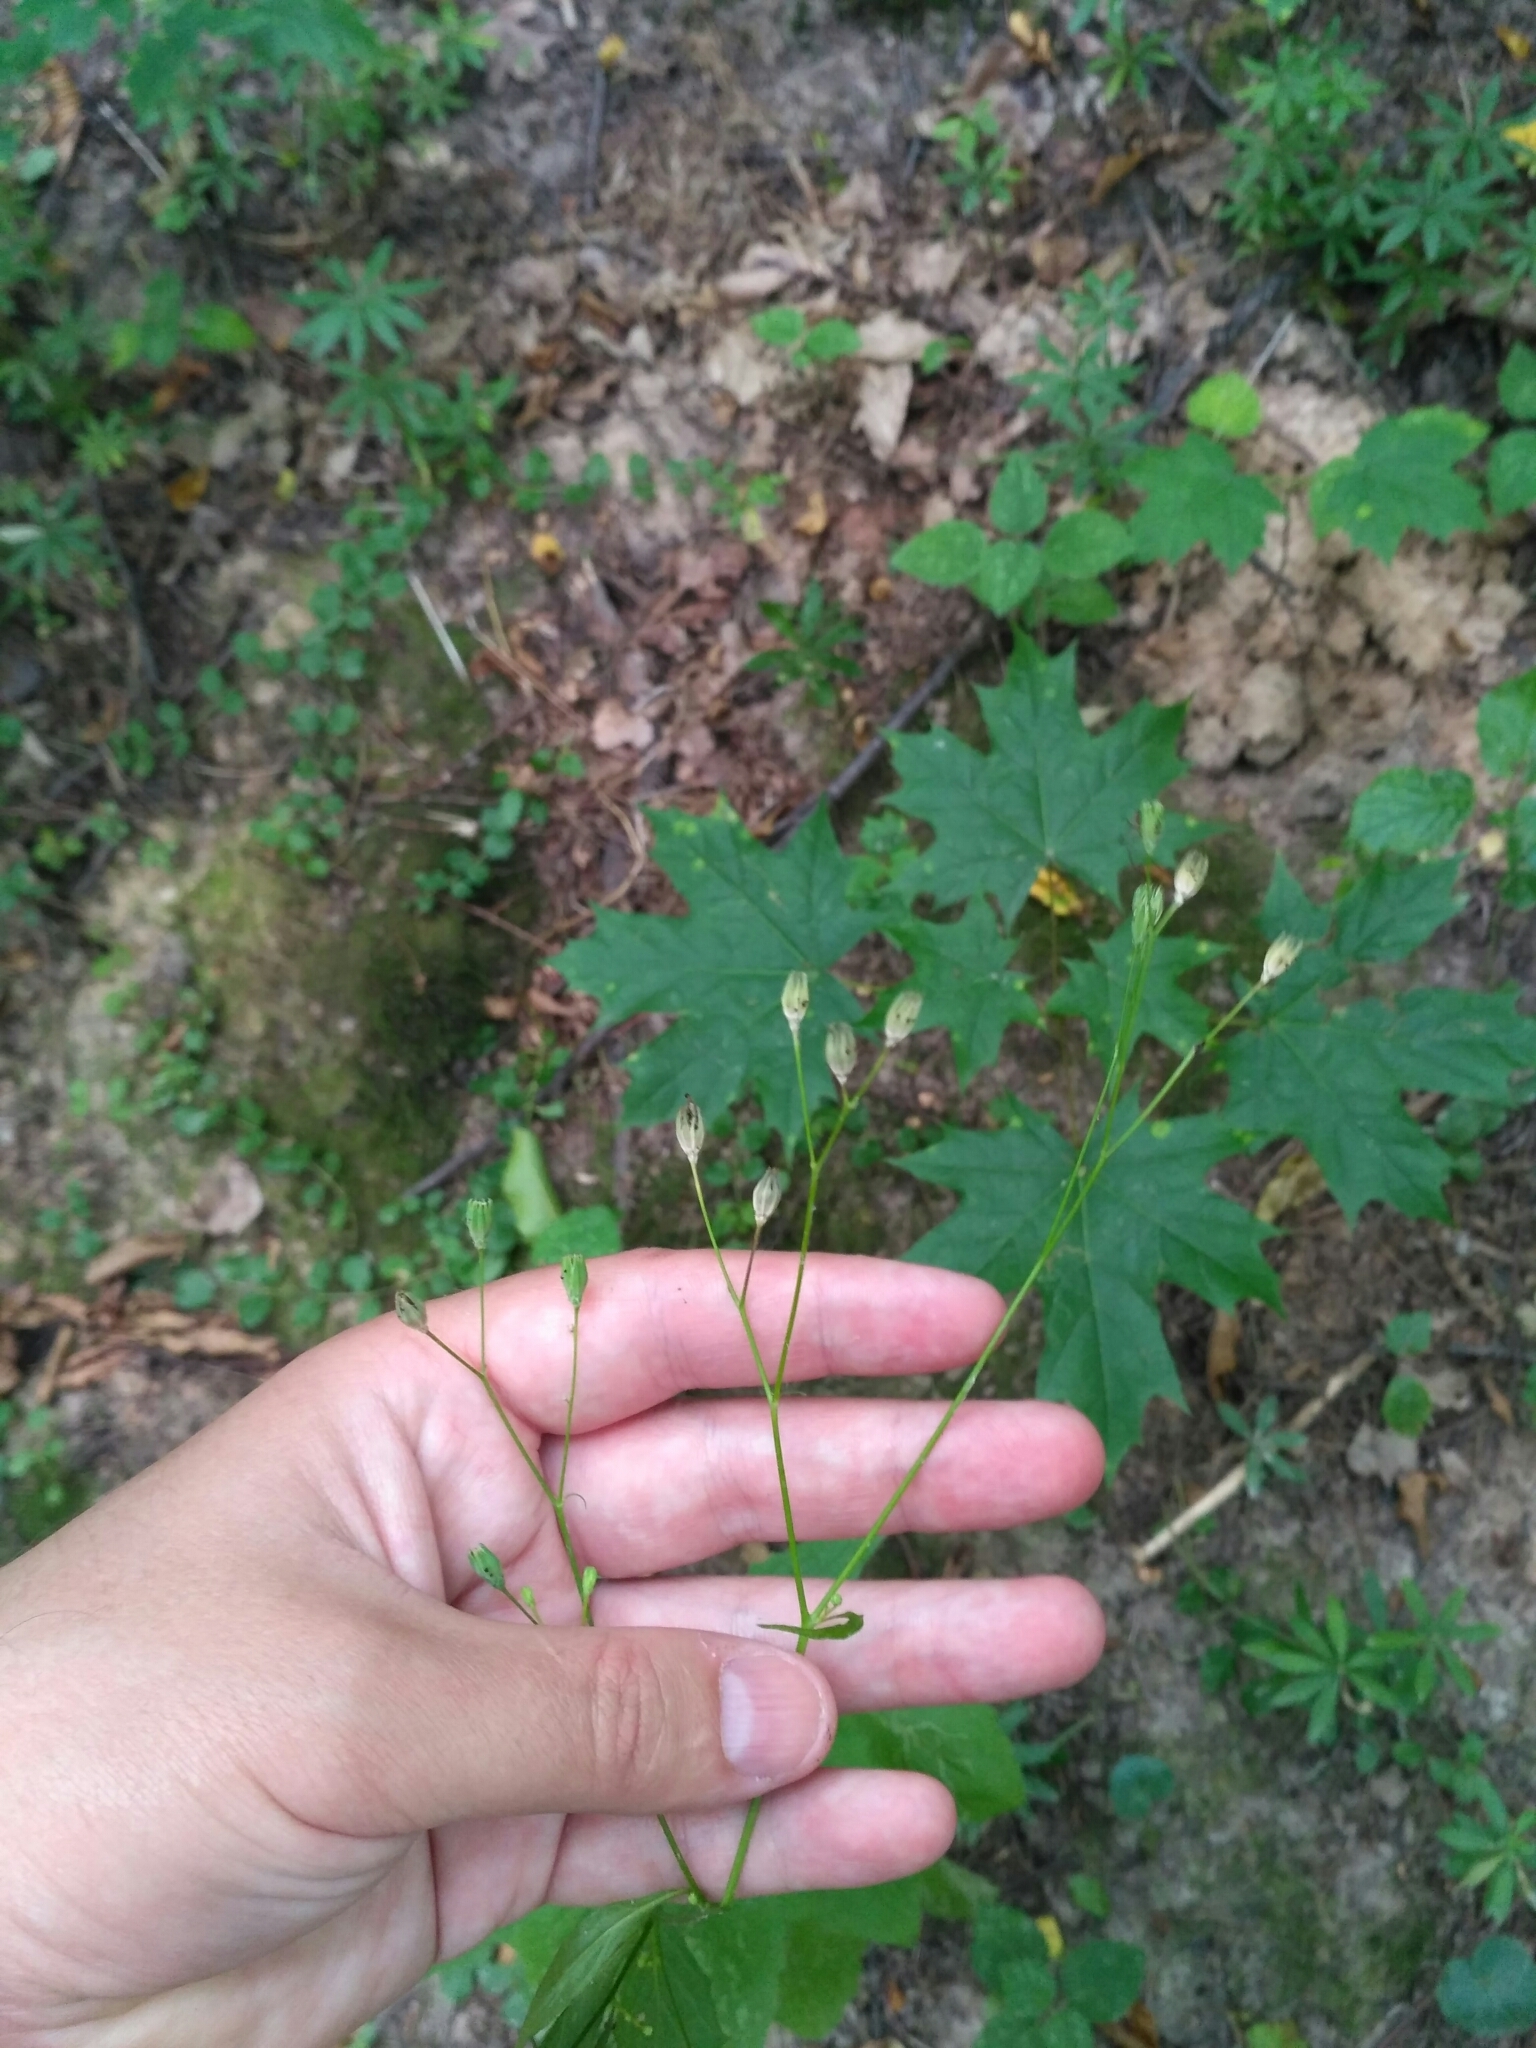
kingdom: Plantae
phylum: Tracheophyta
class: Magnoliopsida
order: Asterales
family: Asteraceae
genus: Lapsana
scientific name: Lapsana communis
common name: Nipplewort
